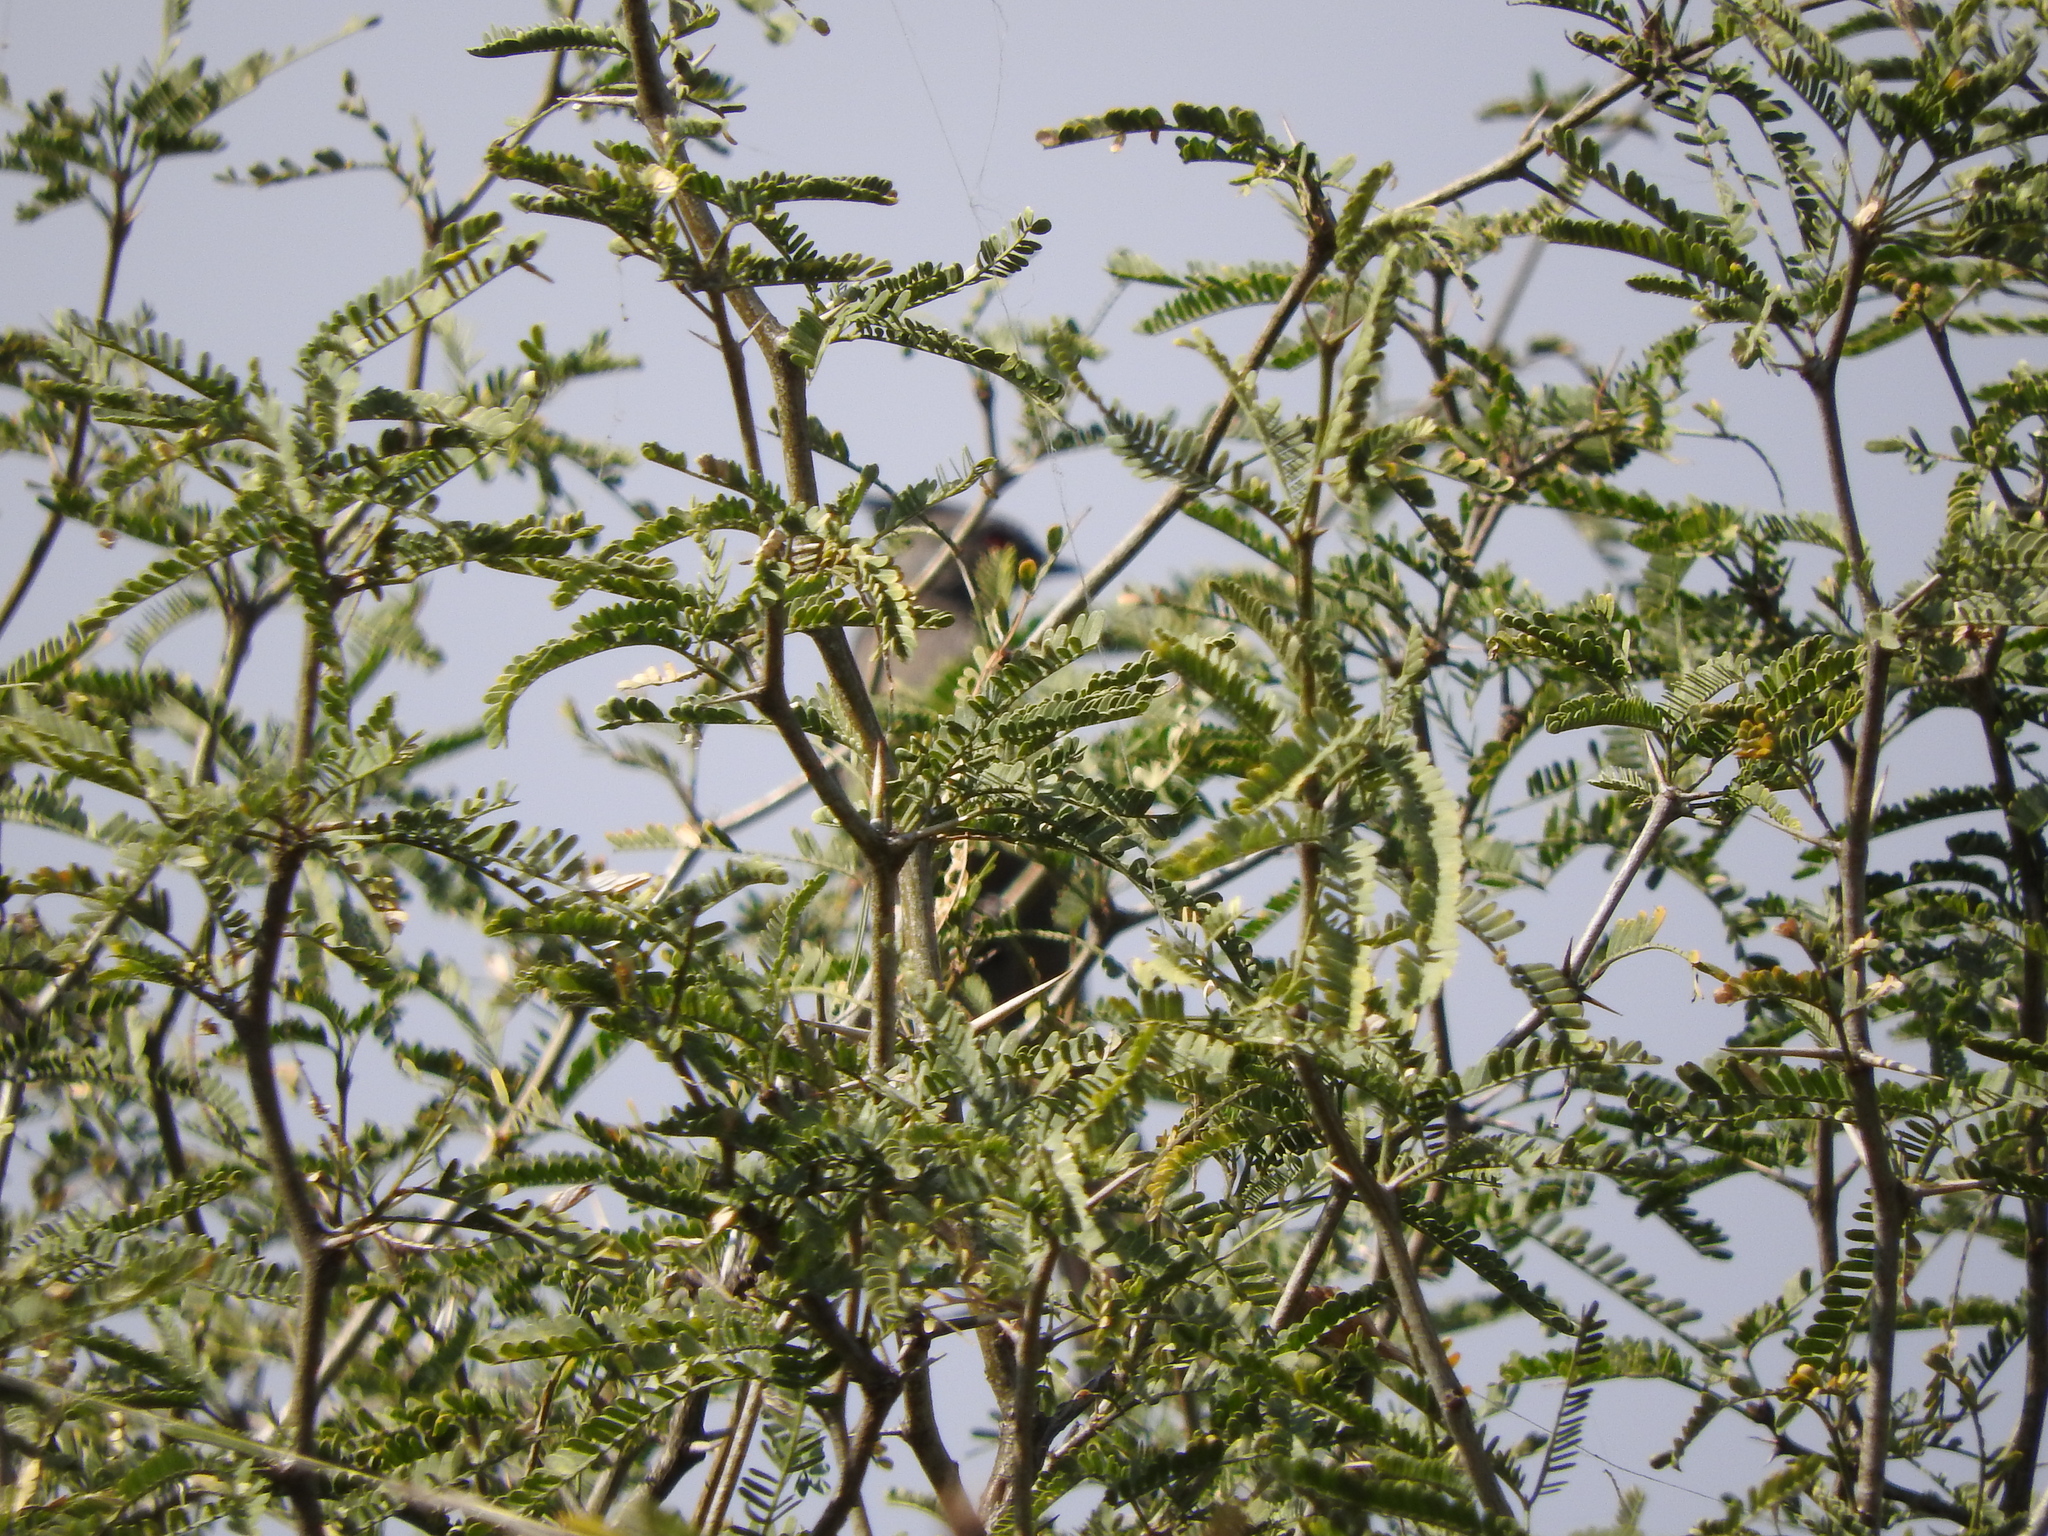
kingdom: Plantae
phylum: Tracheophyta
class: Magnoliopsida
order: Fabales
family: Fabaceae
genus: Prosopis
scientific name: Prosopis laevigata
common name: Smooth mesquite
